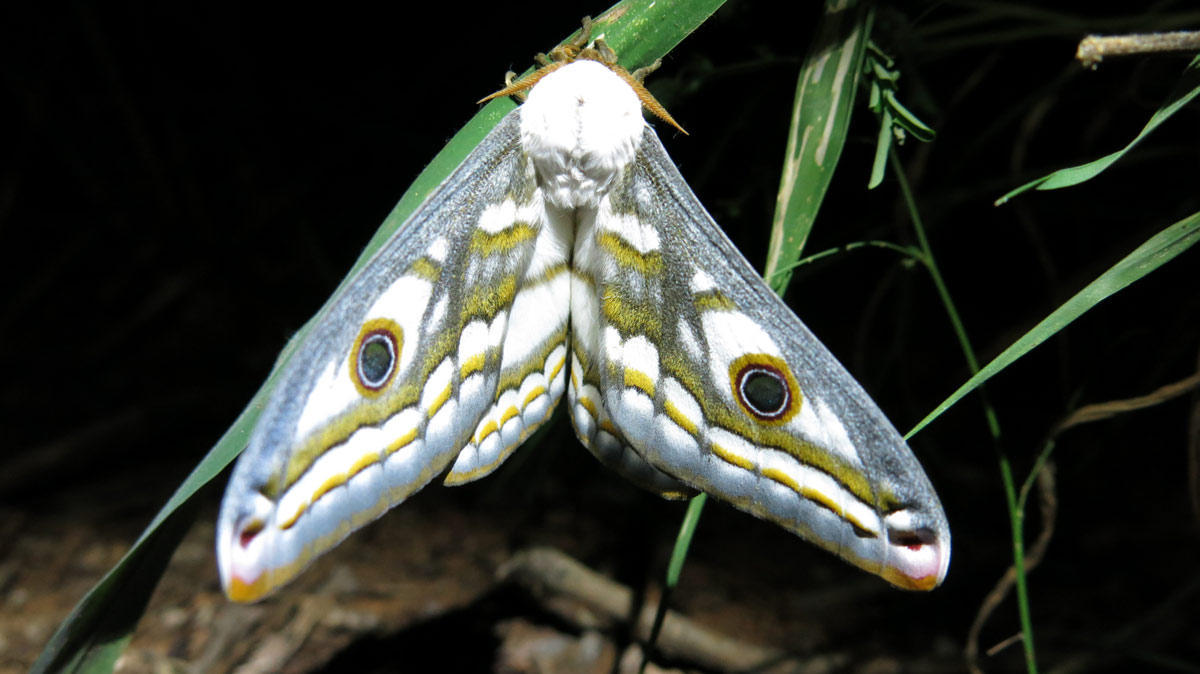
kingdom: Animalia
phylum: Arthropoda
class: Insecta
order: Lepidoptera
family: Saturniidae
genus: Heniocha
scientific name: Heniocha dyops
